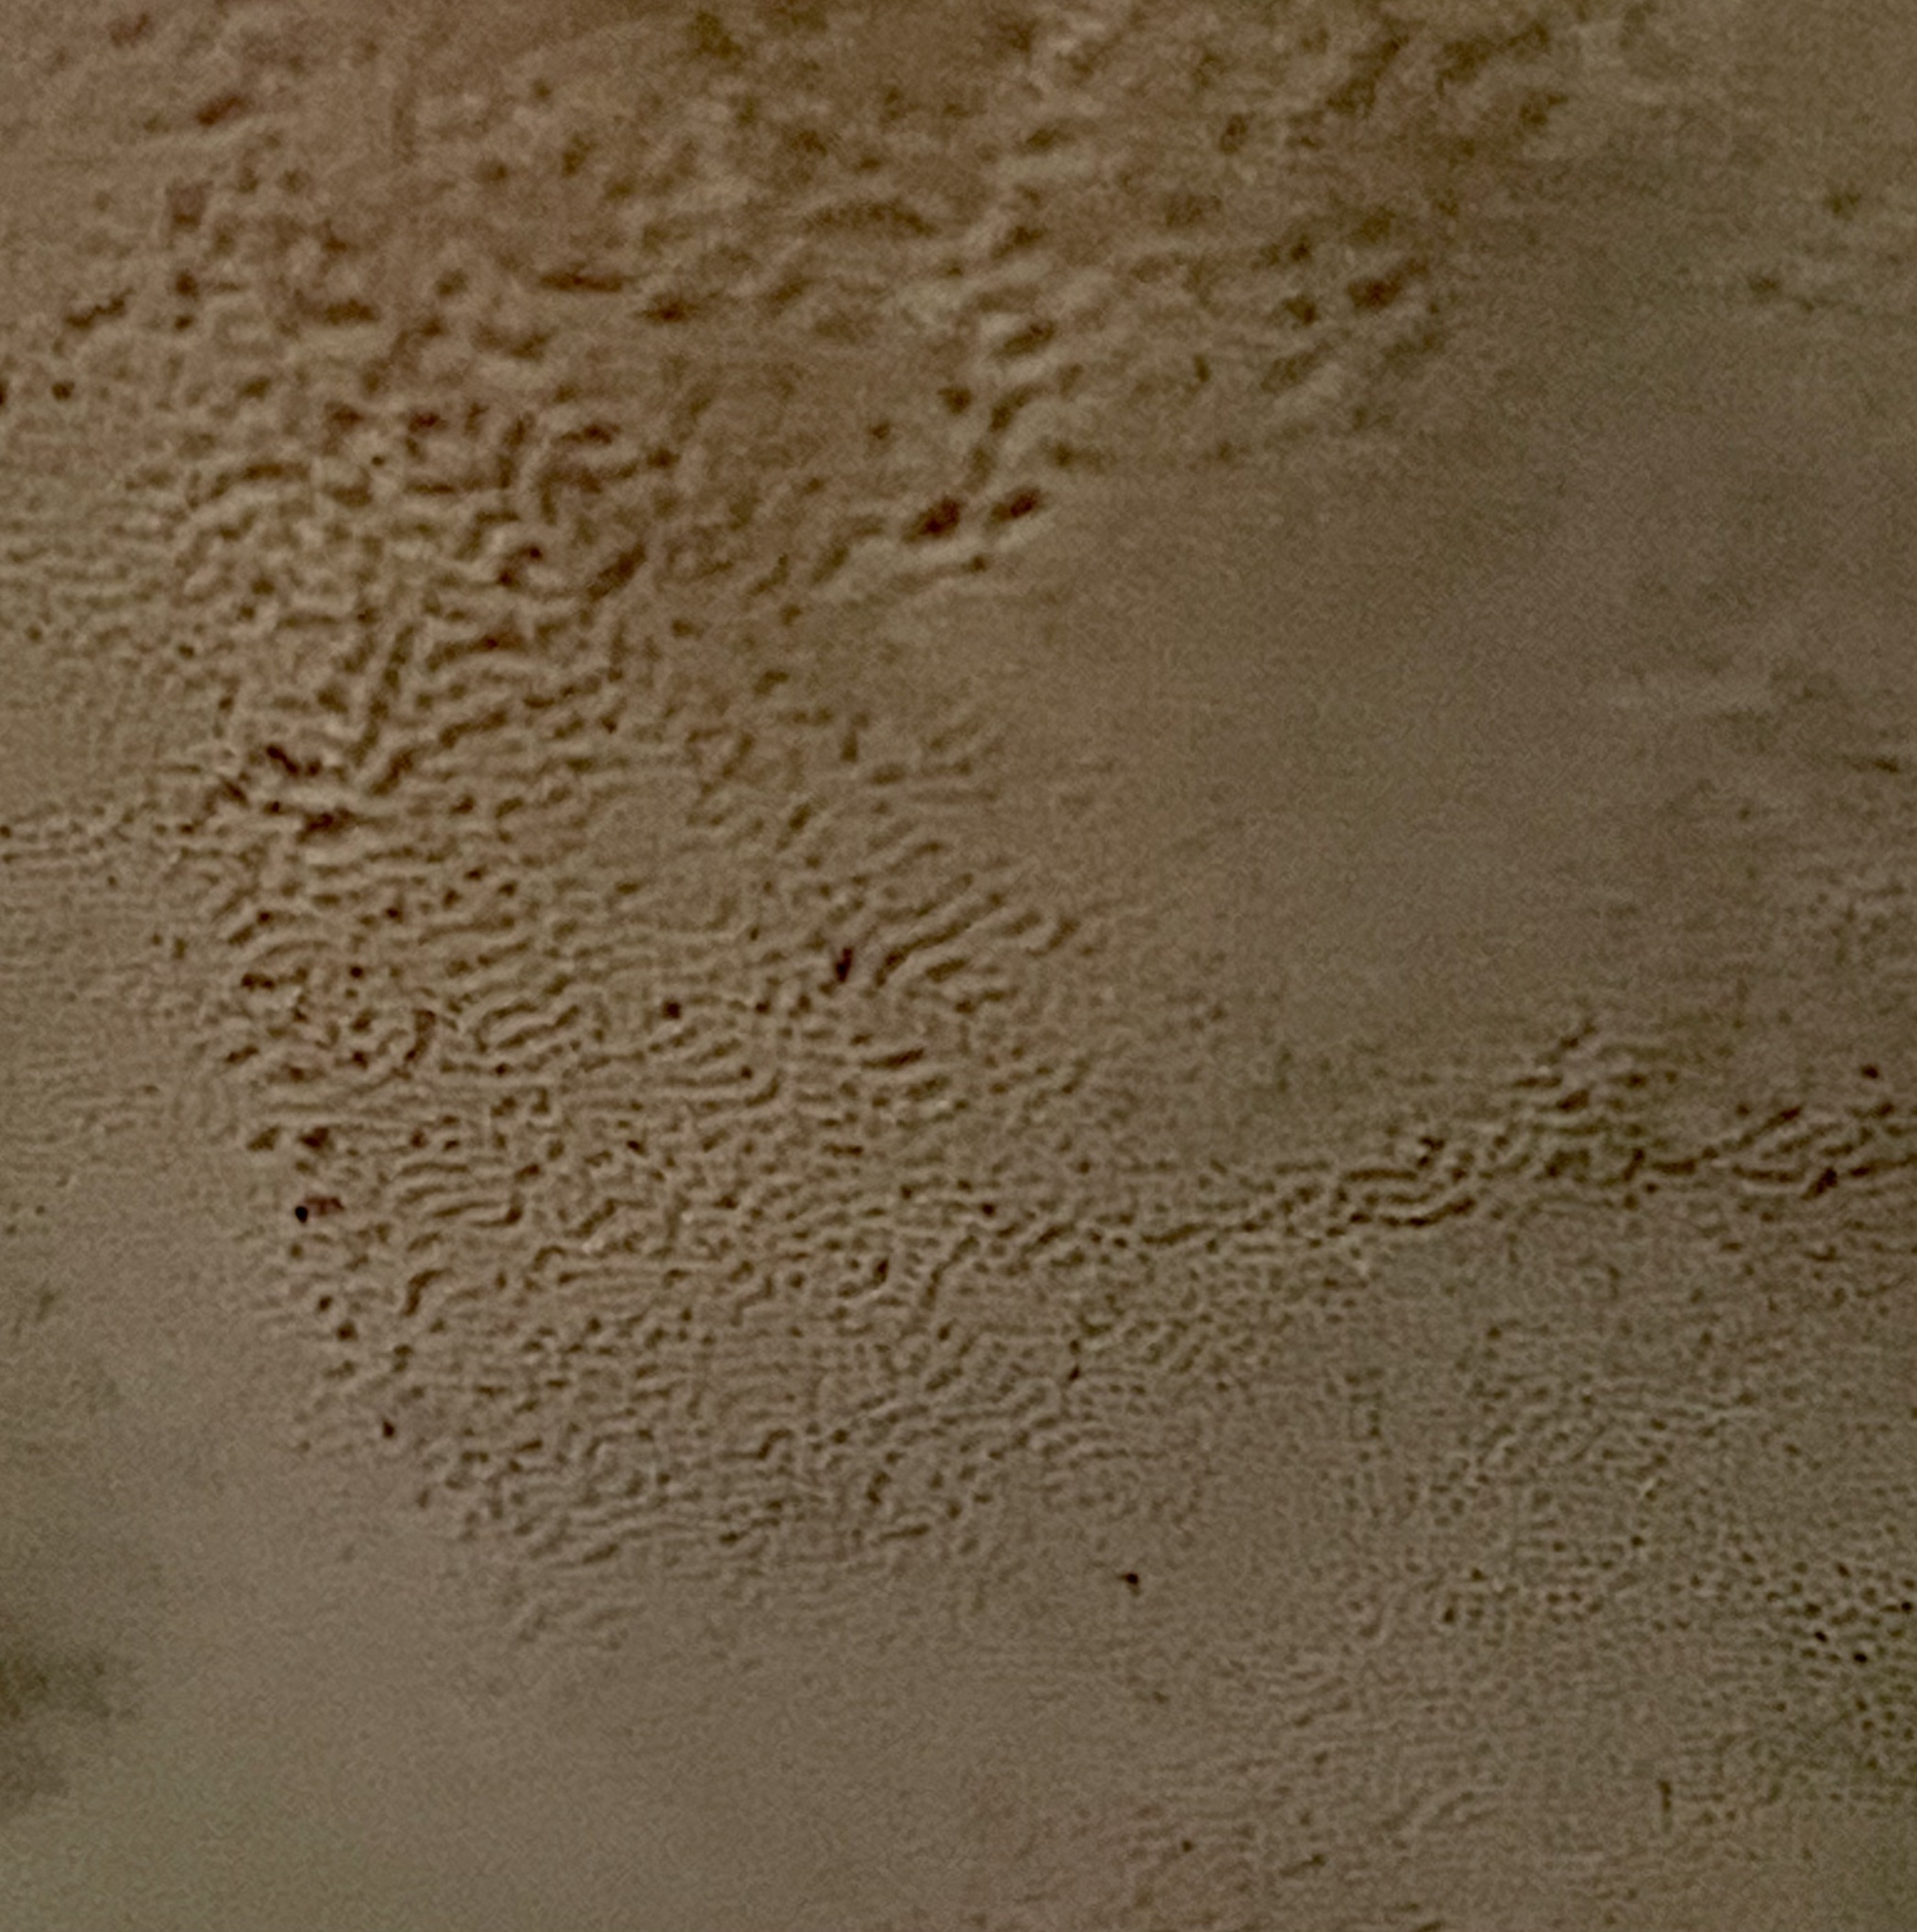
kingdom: Fungi
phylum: Basidiomycota
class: Agaricomycetes
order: Polyporales
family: Polyporaceae
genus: Ganoderma
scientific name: Ganoderma brownii
